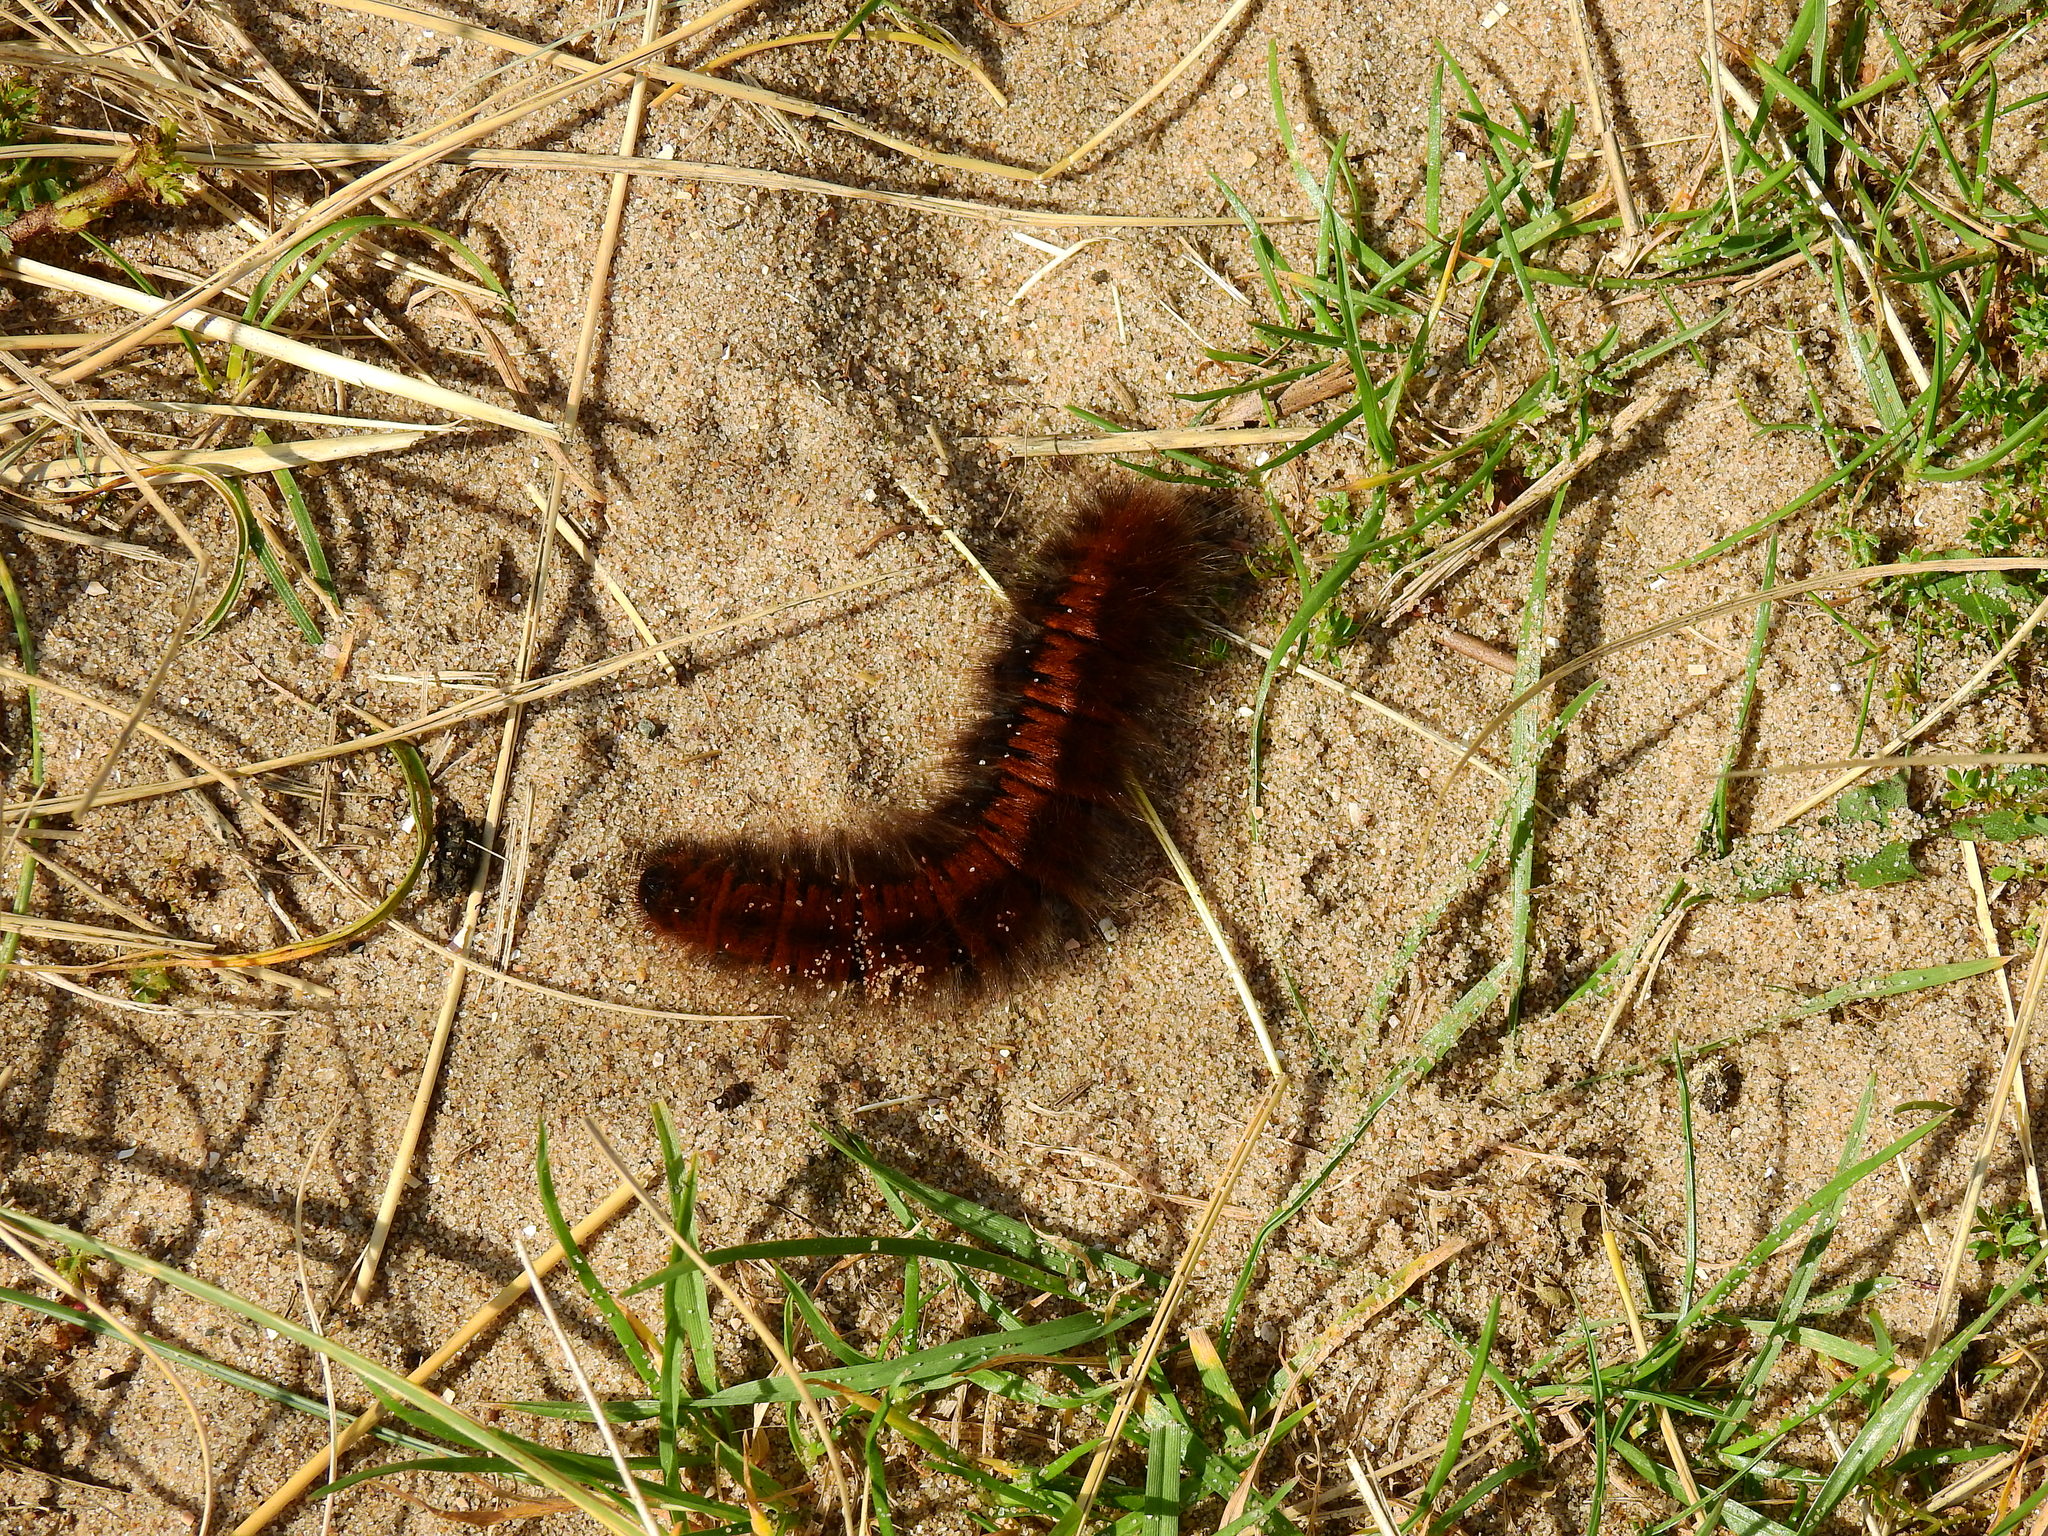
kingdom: Animalia
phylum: Arthropoda
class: Insecta
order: Lepidoptera
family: Lasiocampidae
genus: Macrothylacia
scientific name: Macrothylacia rubi
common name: Fox moth
